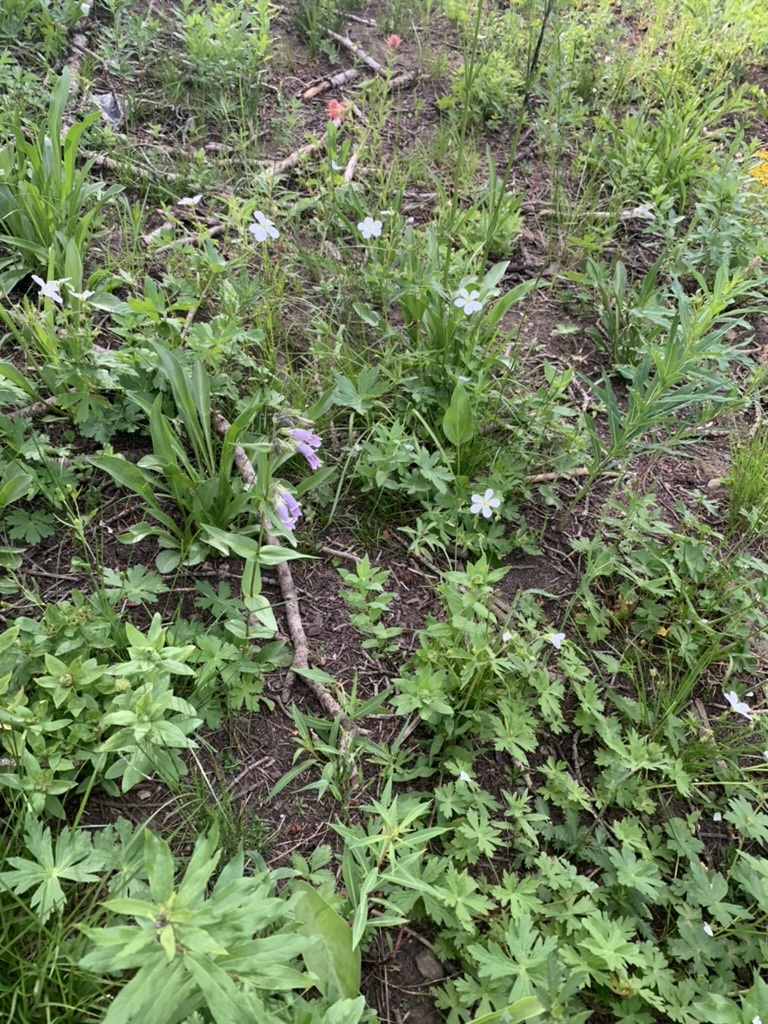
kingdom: Plantae
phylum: Tracheophyta
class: Magnoliopsida
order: Lamiales
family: Plantaginaceae
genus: Penstemon
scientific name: Penstemon whippleanus
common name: Whipple's penstemon
